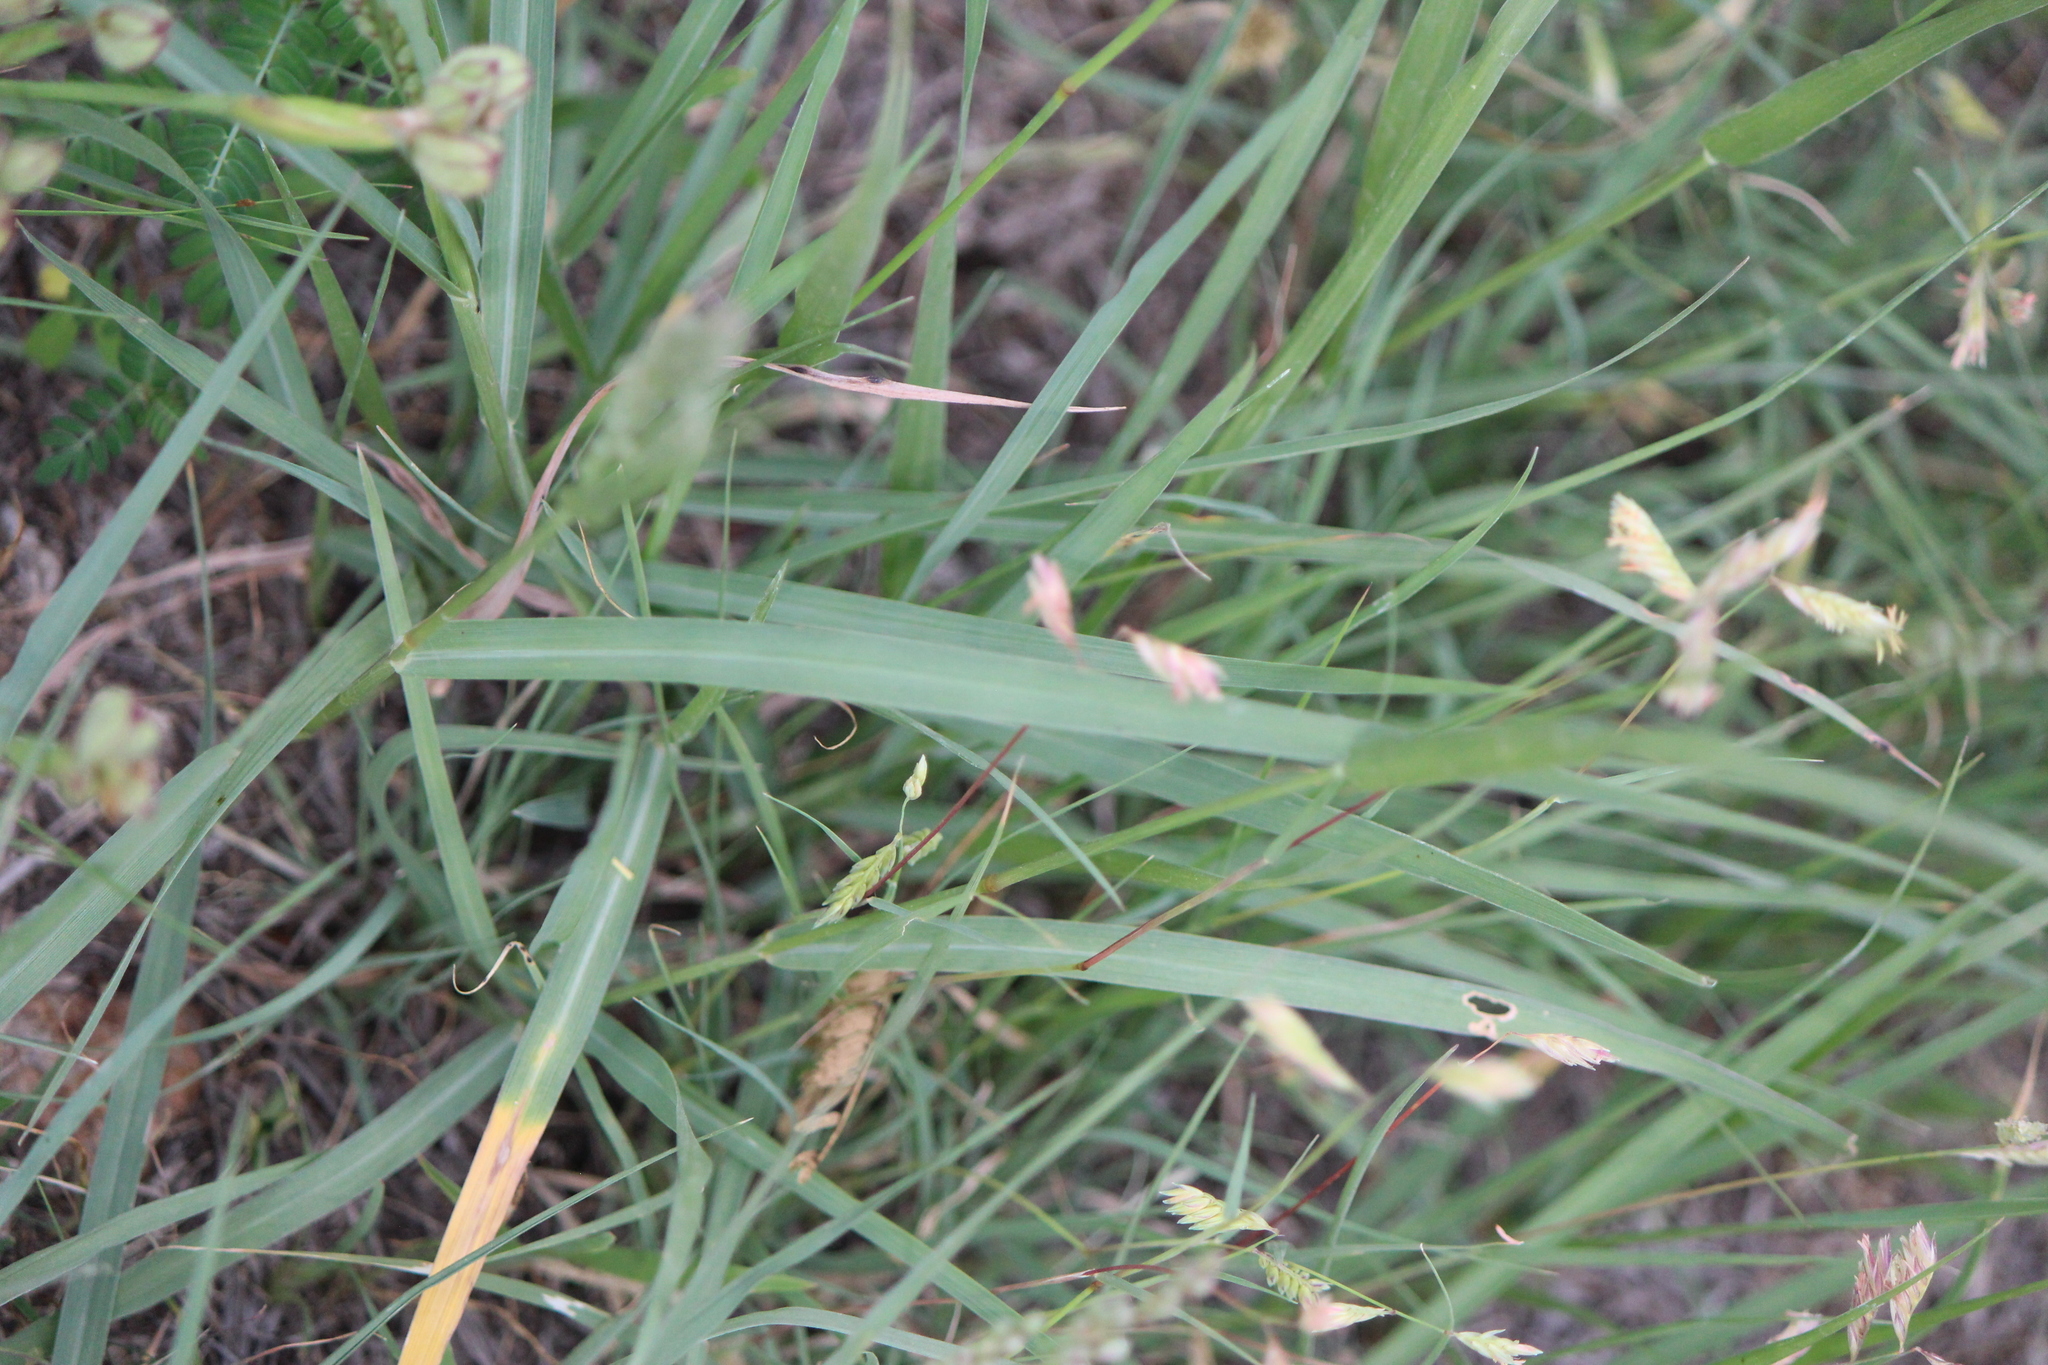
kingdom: Plantae
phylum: Tracheophyta
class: Liliopsida
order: Poales
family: Poaceae
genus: Bouteloua
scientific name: Bouteloua dactyloides
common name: Buffalo grass
